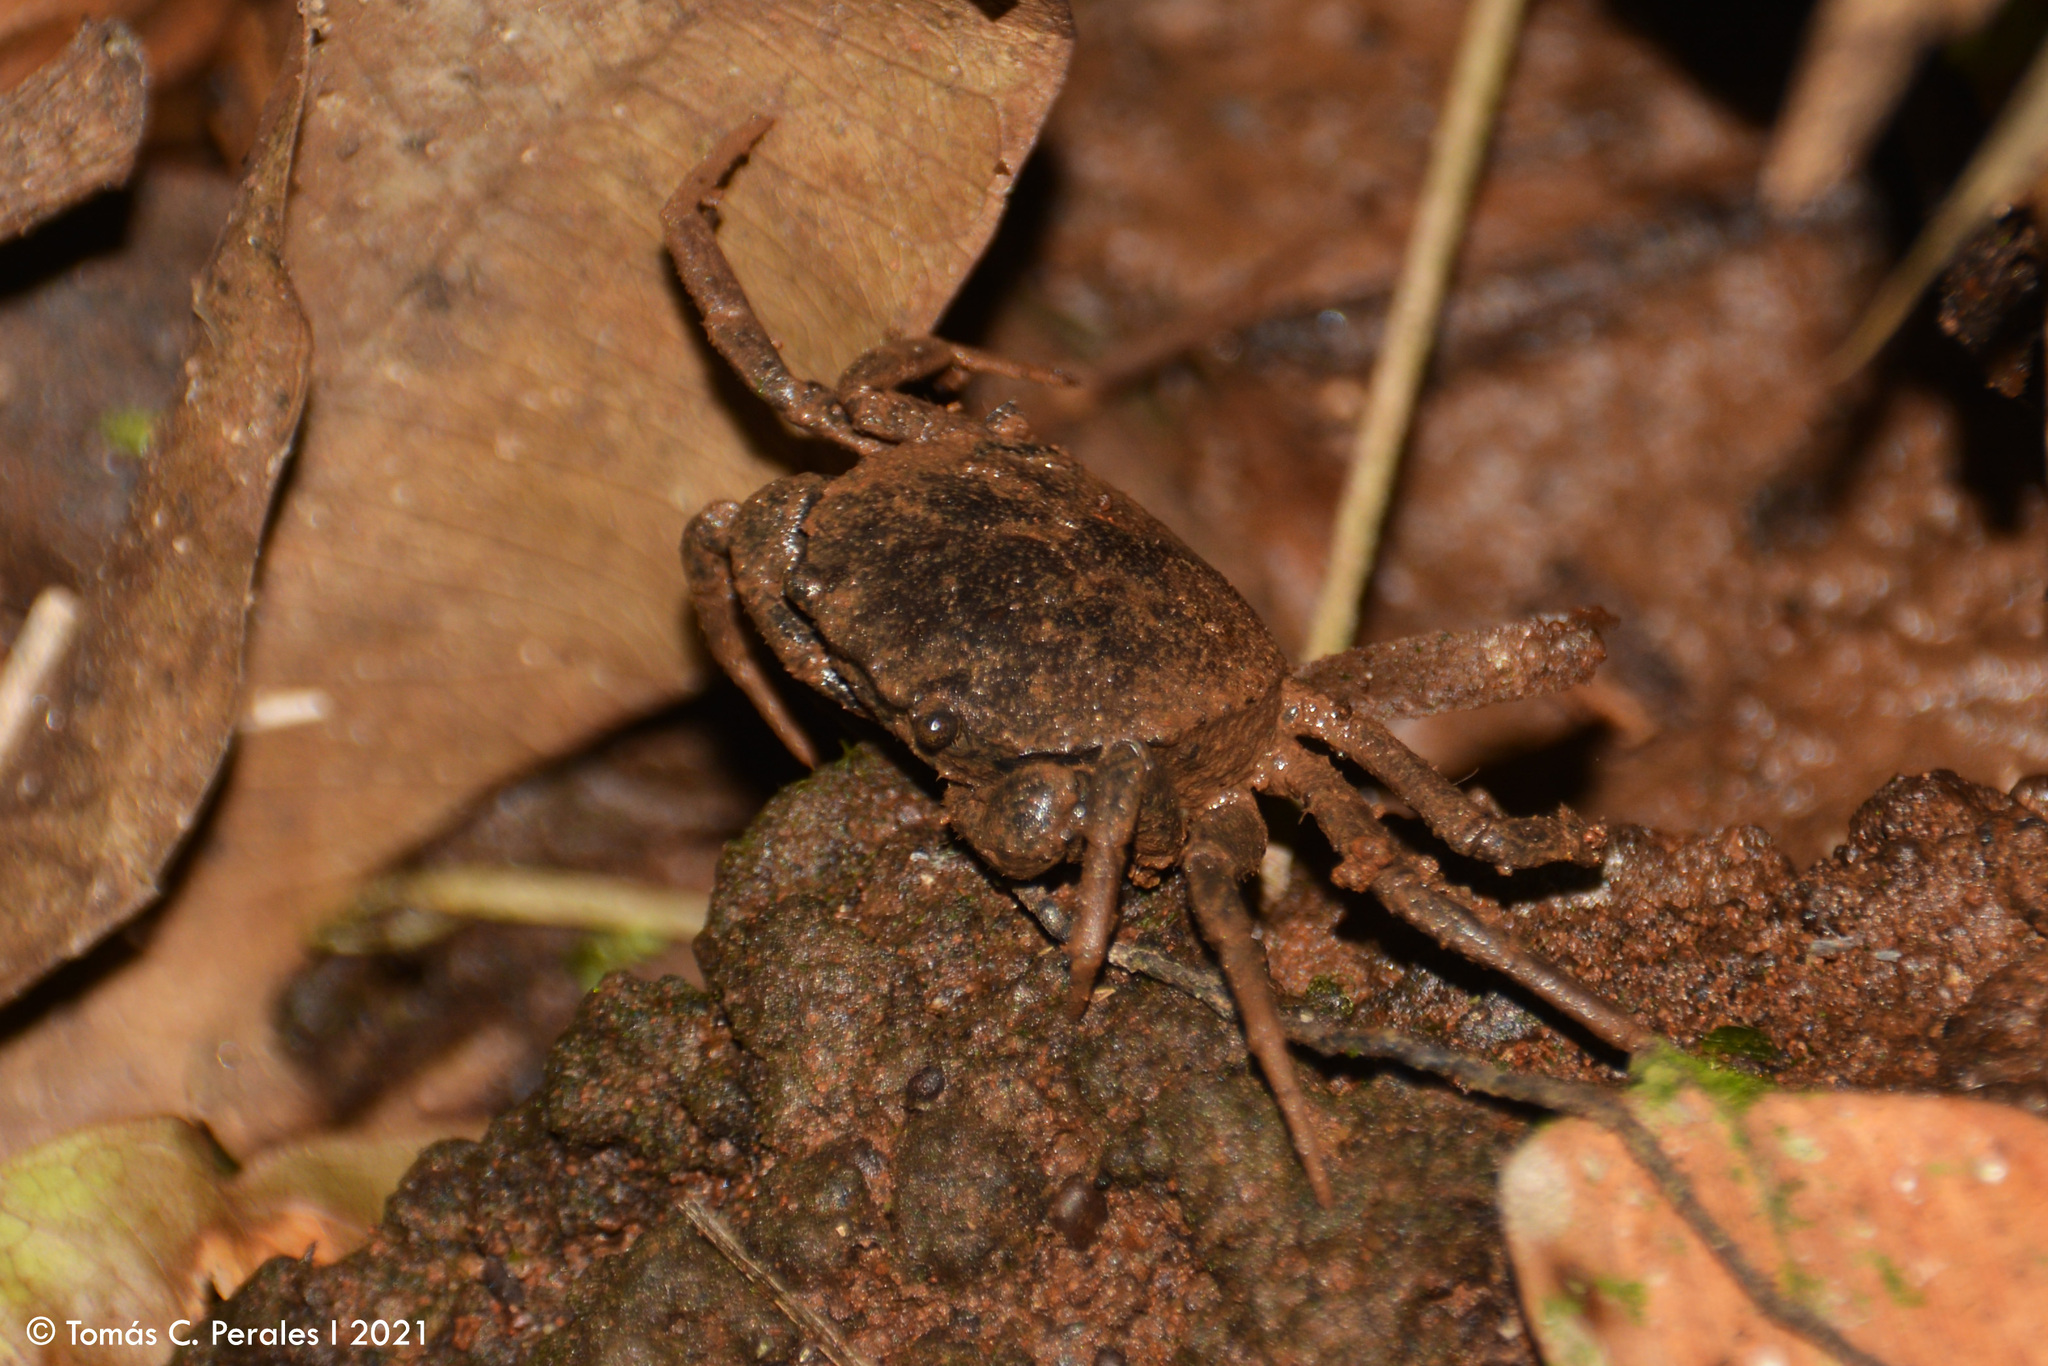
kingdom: Animalia
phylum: Arthropoda
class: Malacostraca
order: Decapoda
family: Trichodactylidae
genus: Trichodactylus
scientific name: Trichodactylus kensleyi
